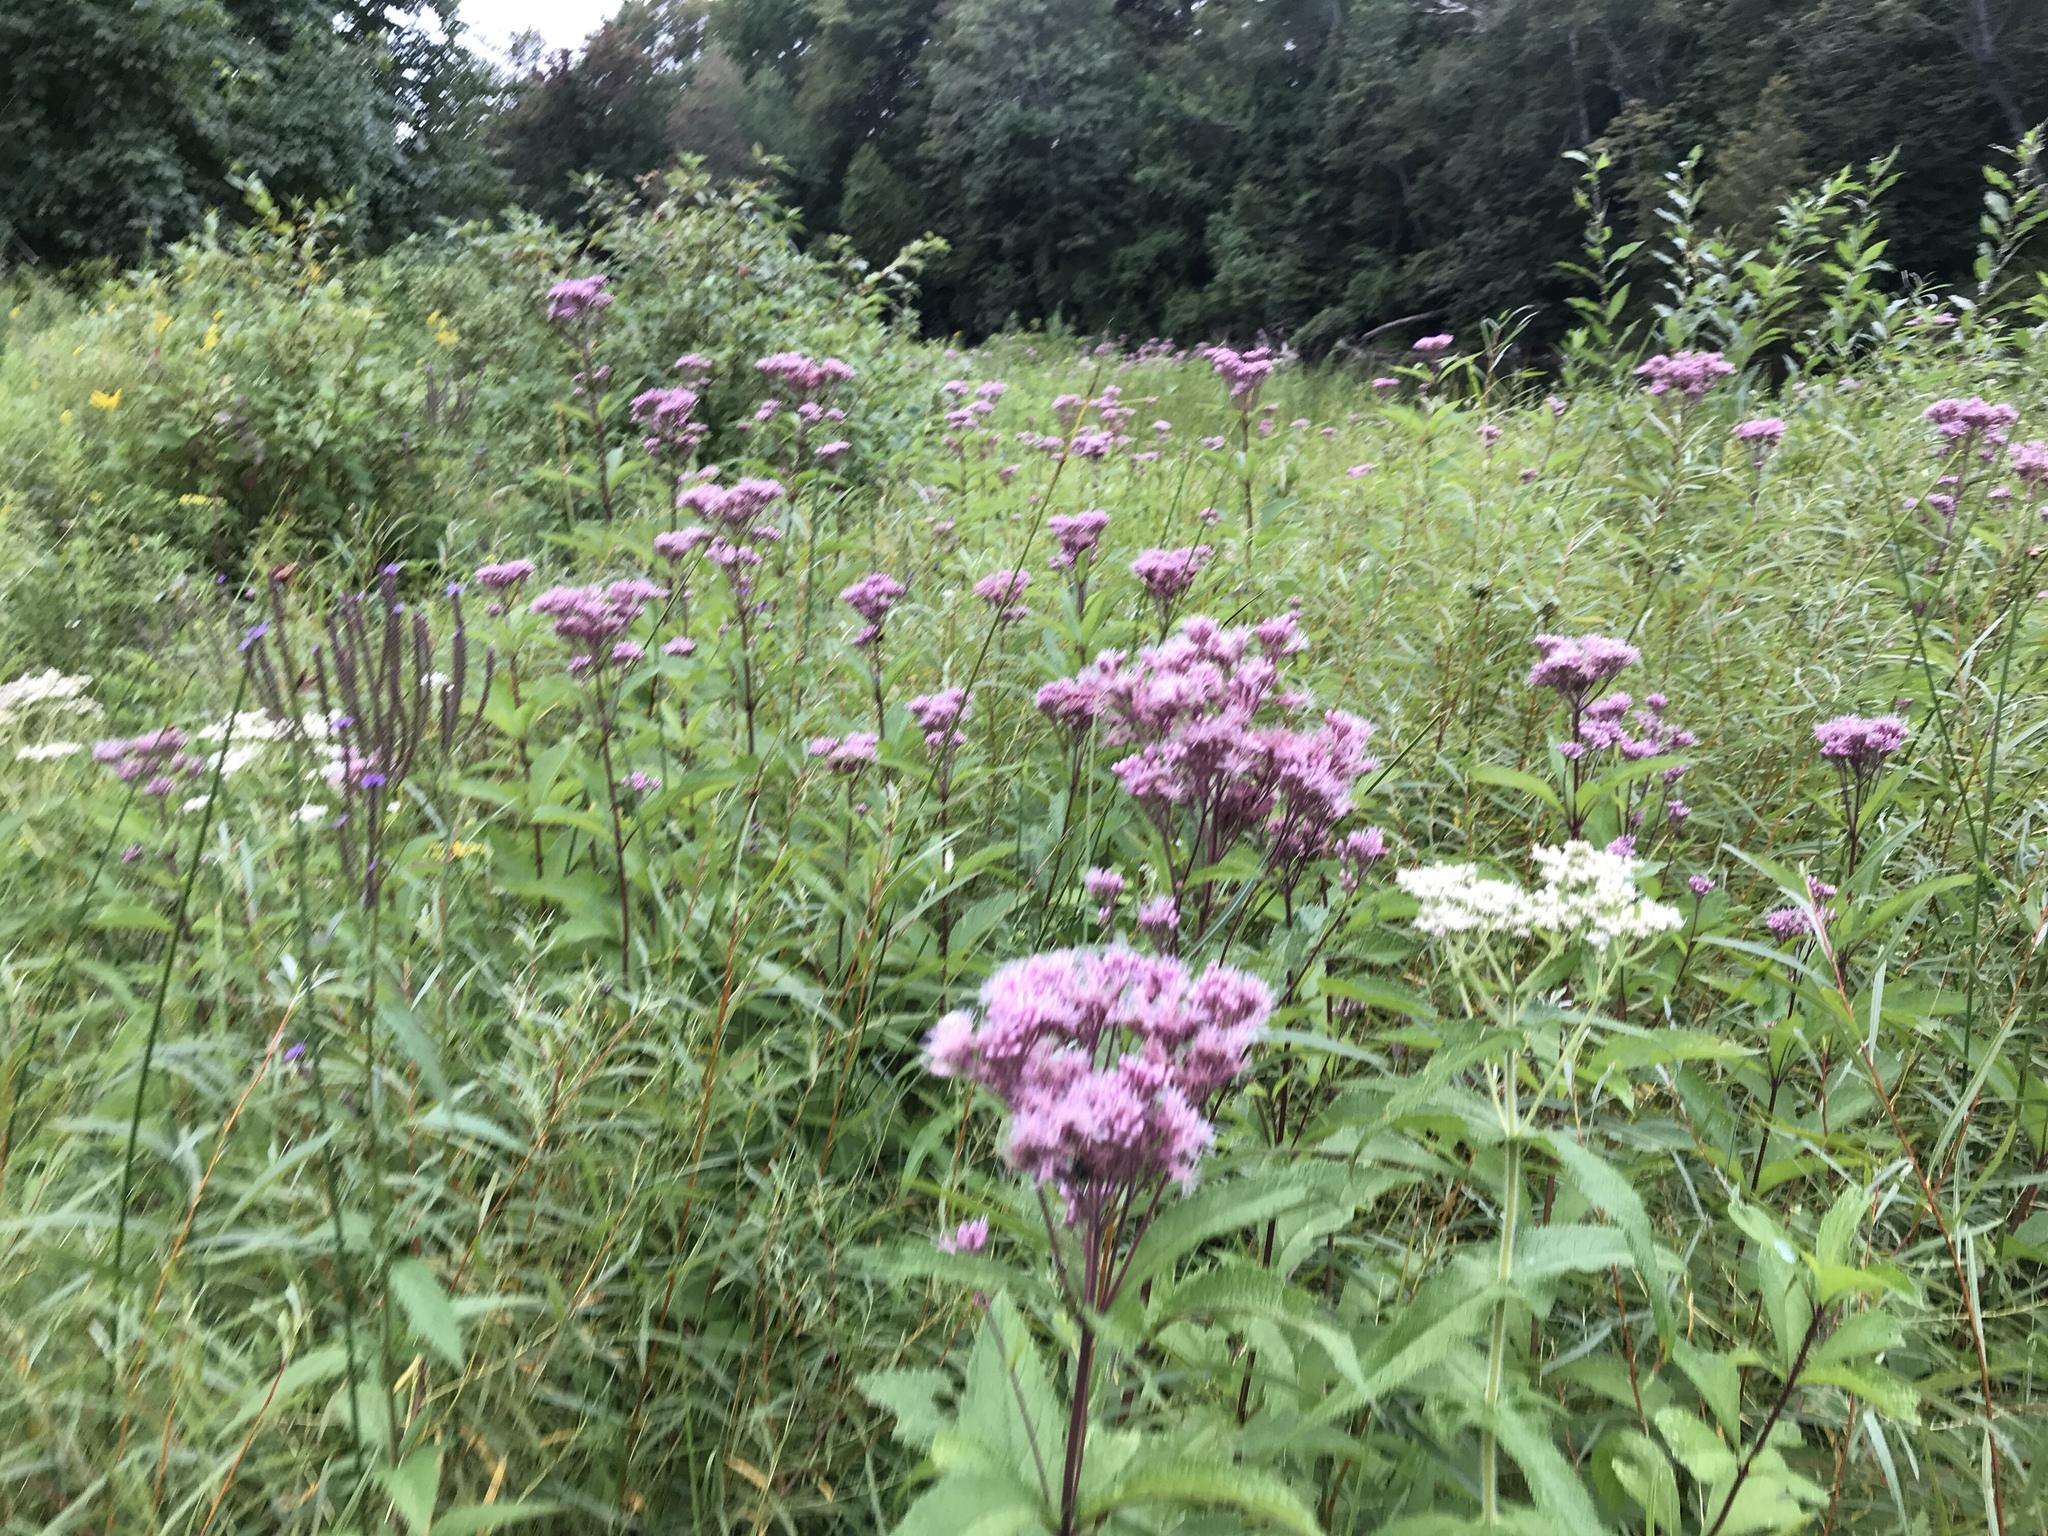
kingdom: Plantae
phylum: Tracheophyta
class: Magnoliopsida
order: Asterales
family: Asteraceae
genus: Eutrochium
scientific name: Eutrochium maculatum
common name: Spotted joe pye weed
